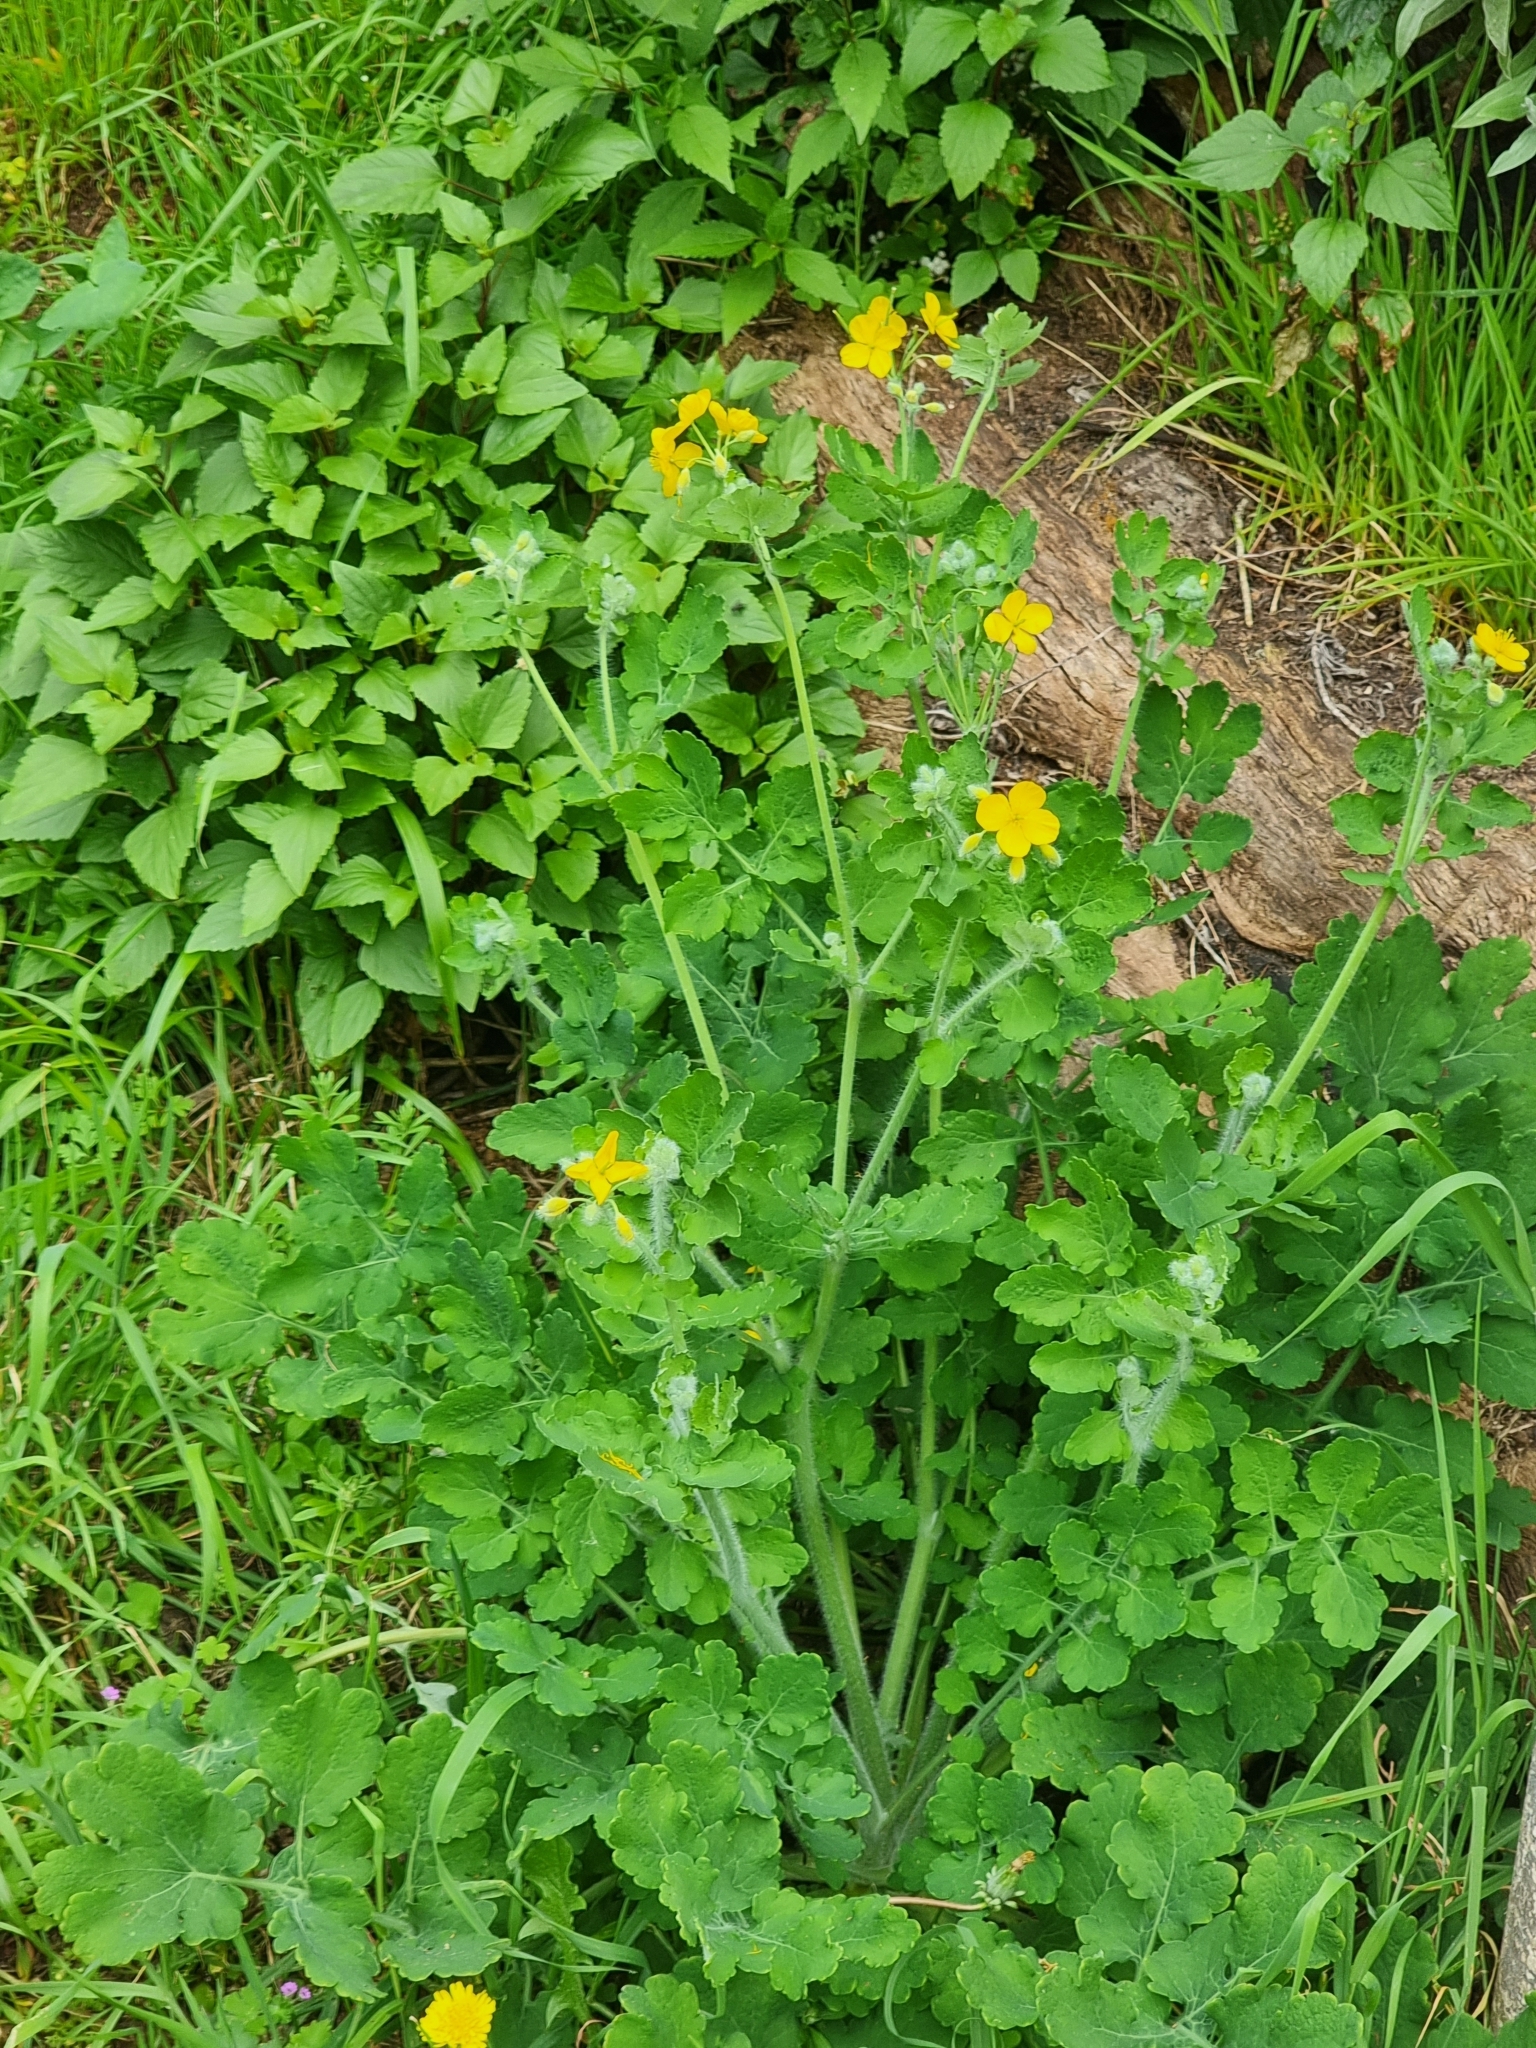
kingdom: Plantae
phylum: Tracheophyta
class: Magnoliopsida
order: Ranunculales
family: Papaveraceae
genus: Chelidonium
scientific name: Chelidonium majus
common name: Greater celandine
